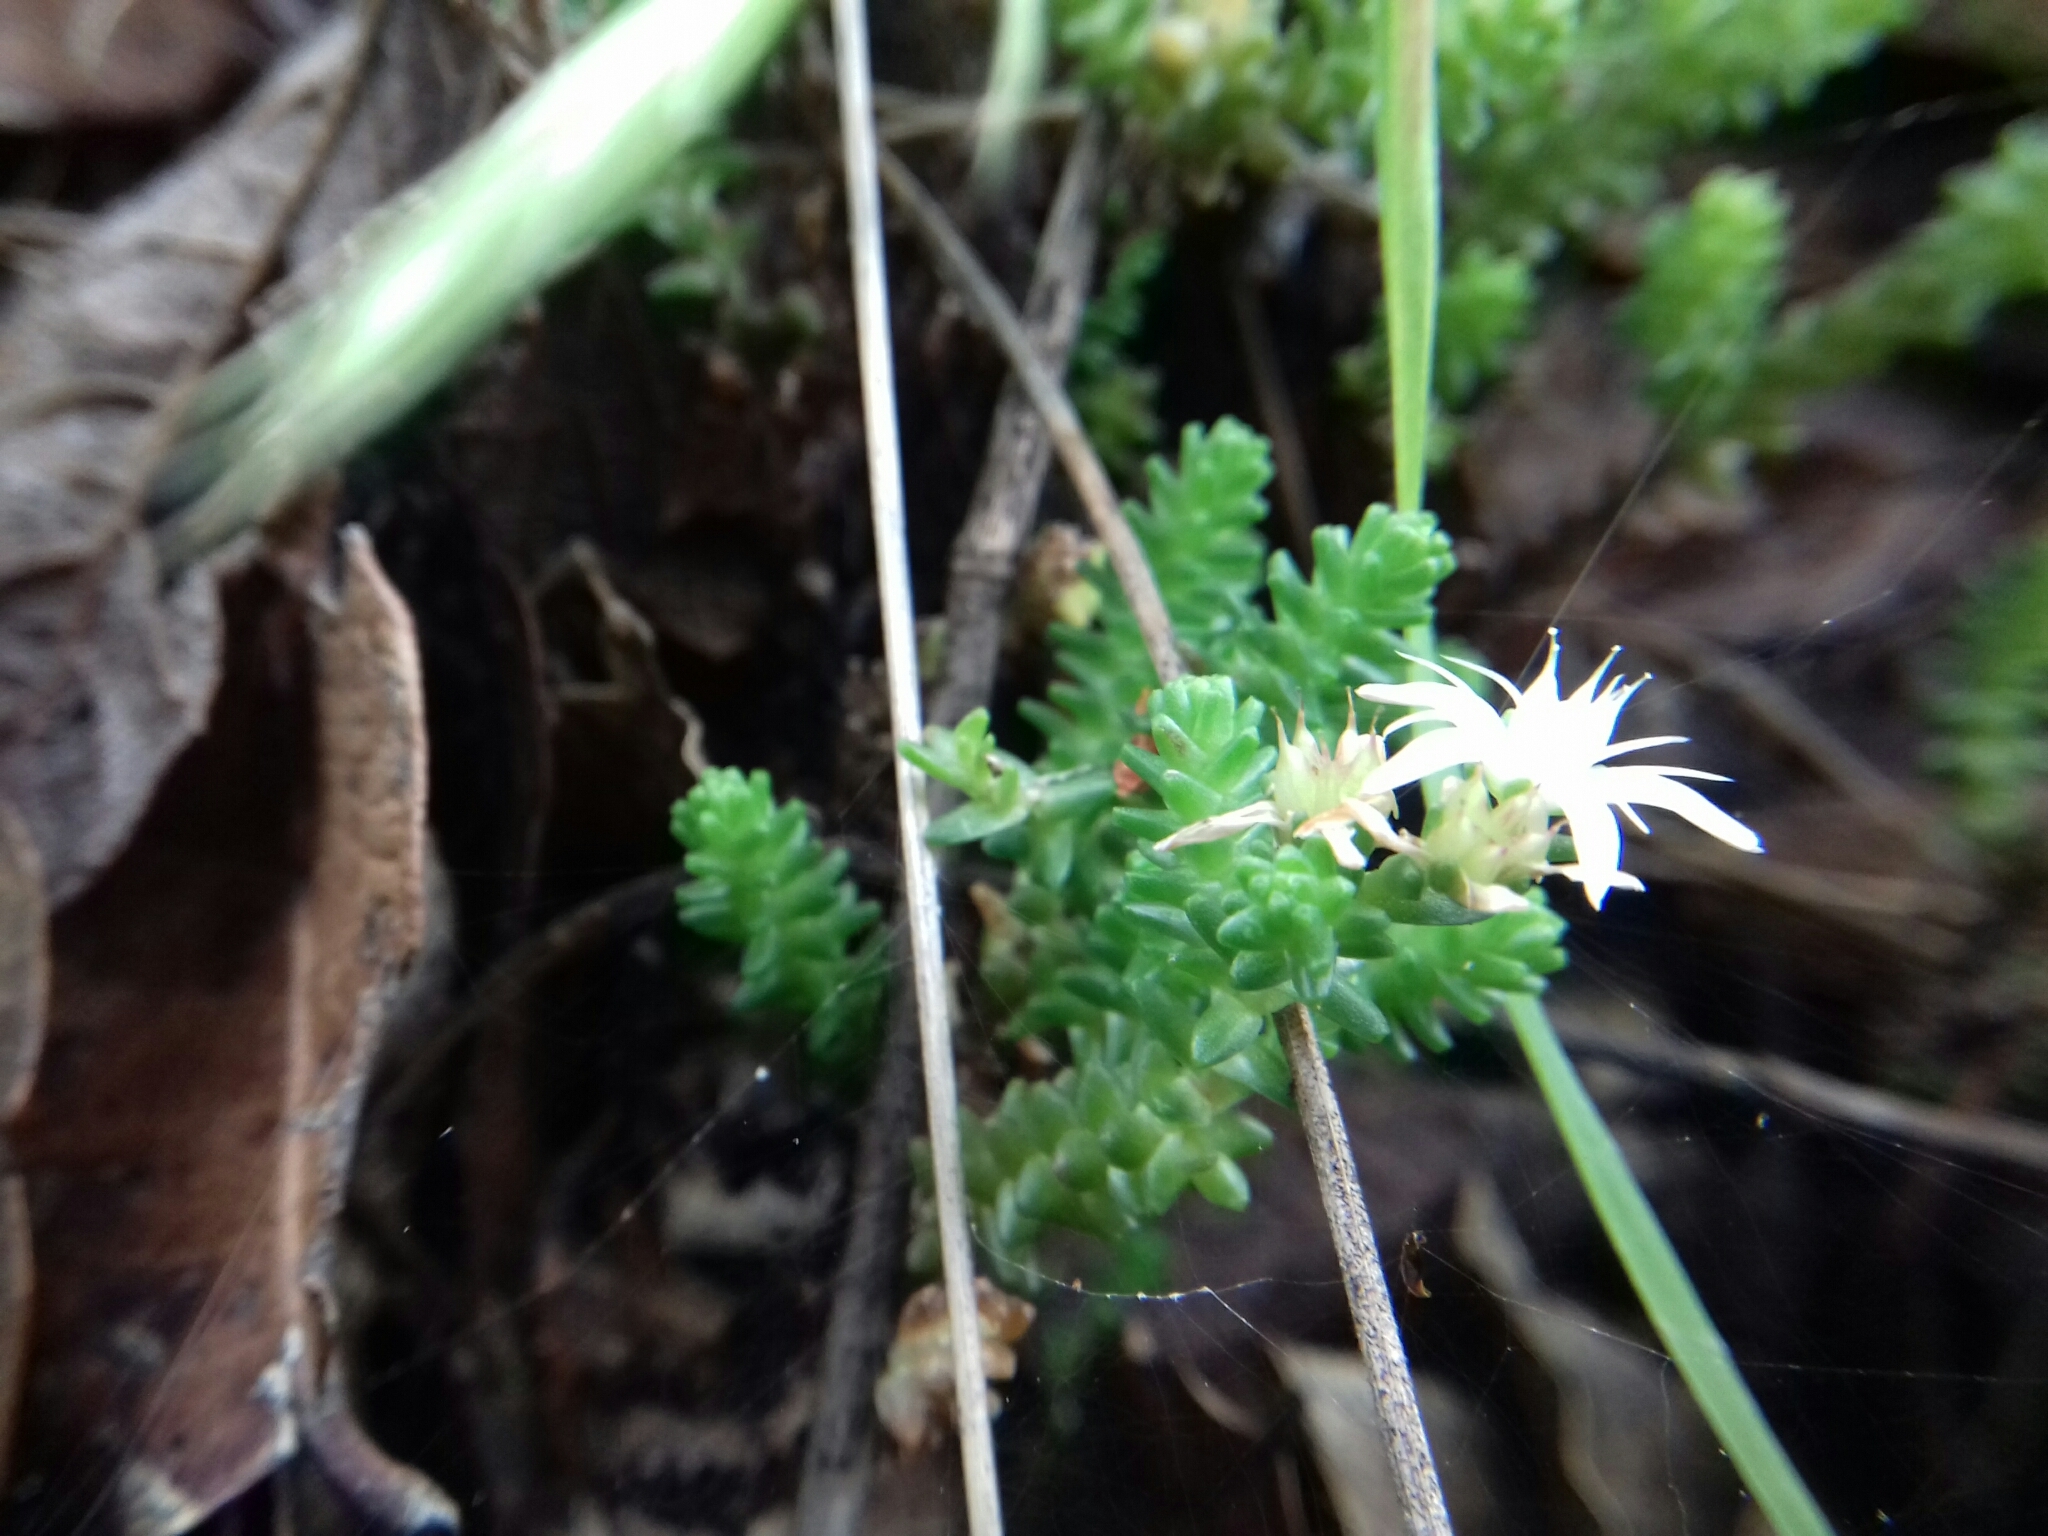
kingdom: Plantae
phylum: Tracheophyta
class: Magnoliopsida
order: Saxifragales
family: Crassulaceae
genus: Sedum
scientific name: Sedum moranense
